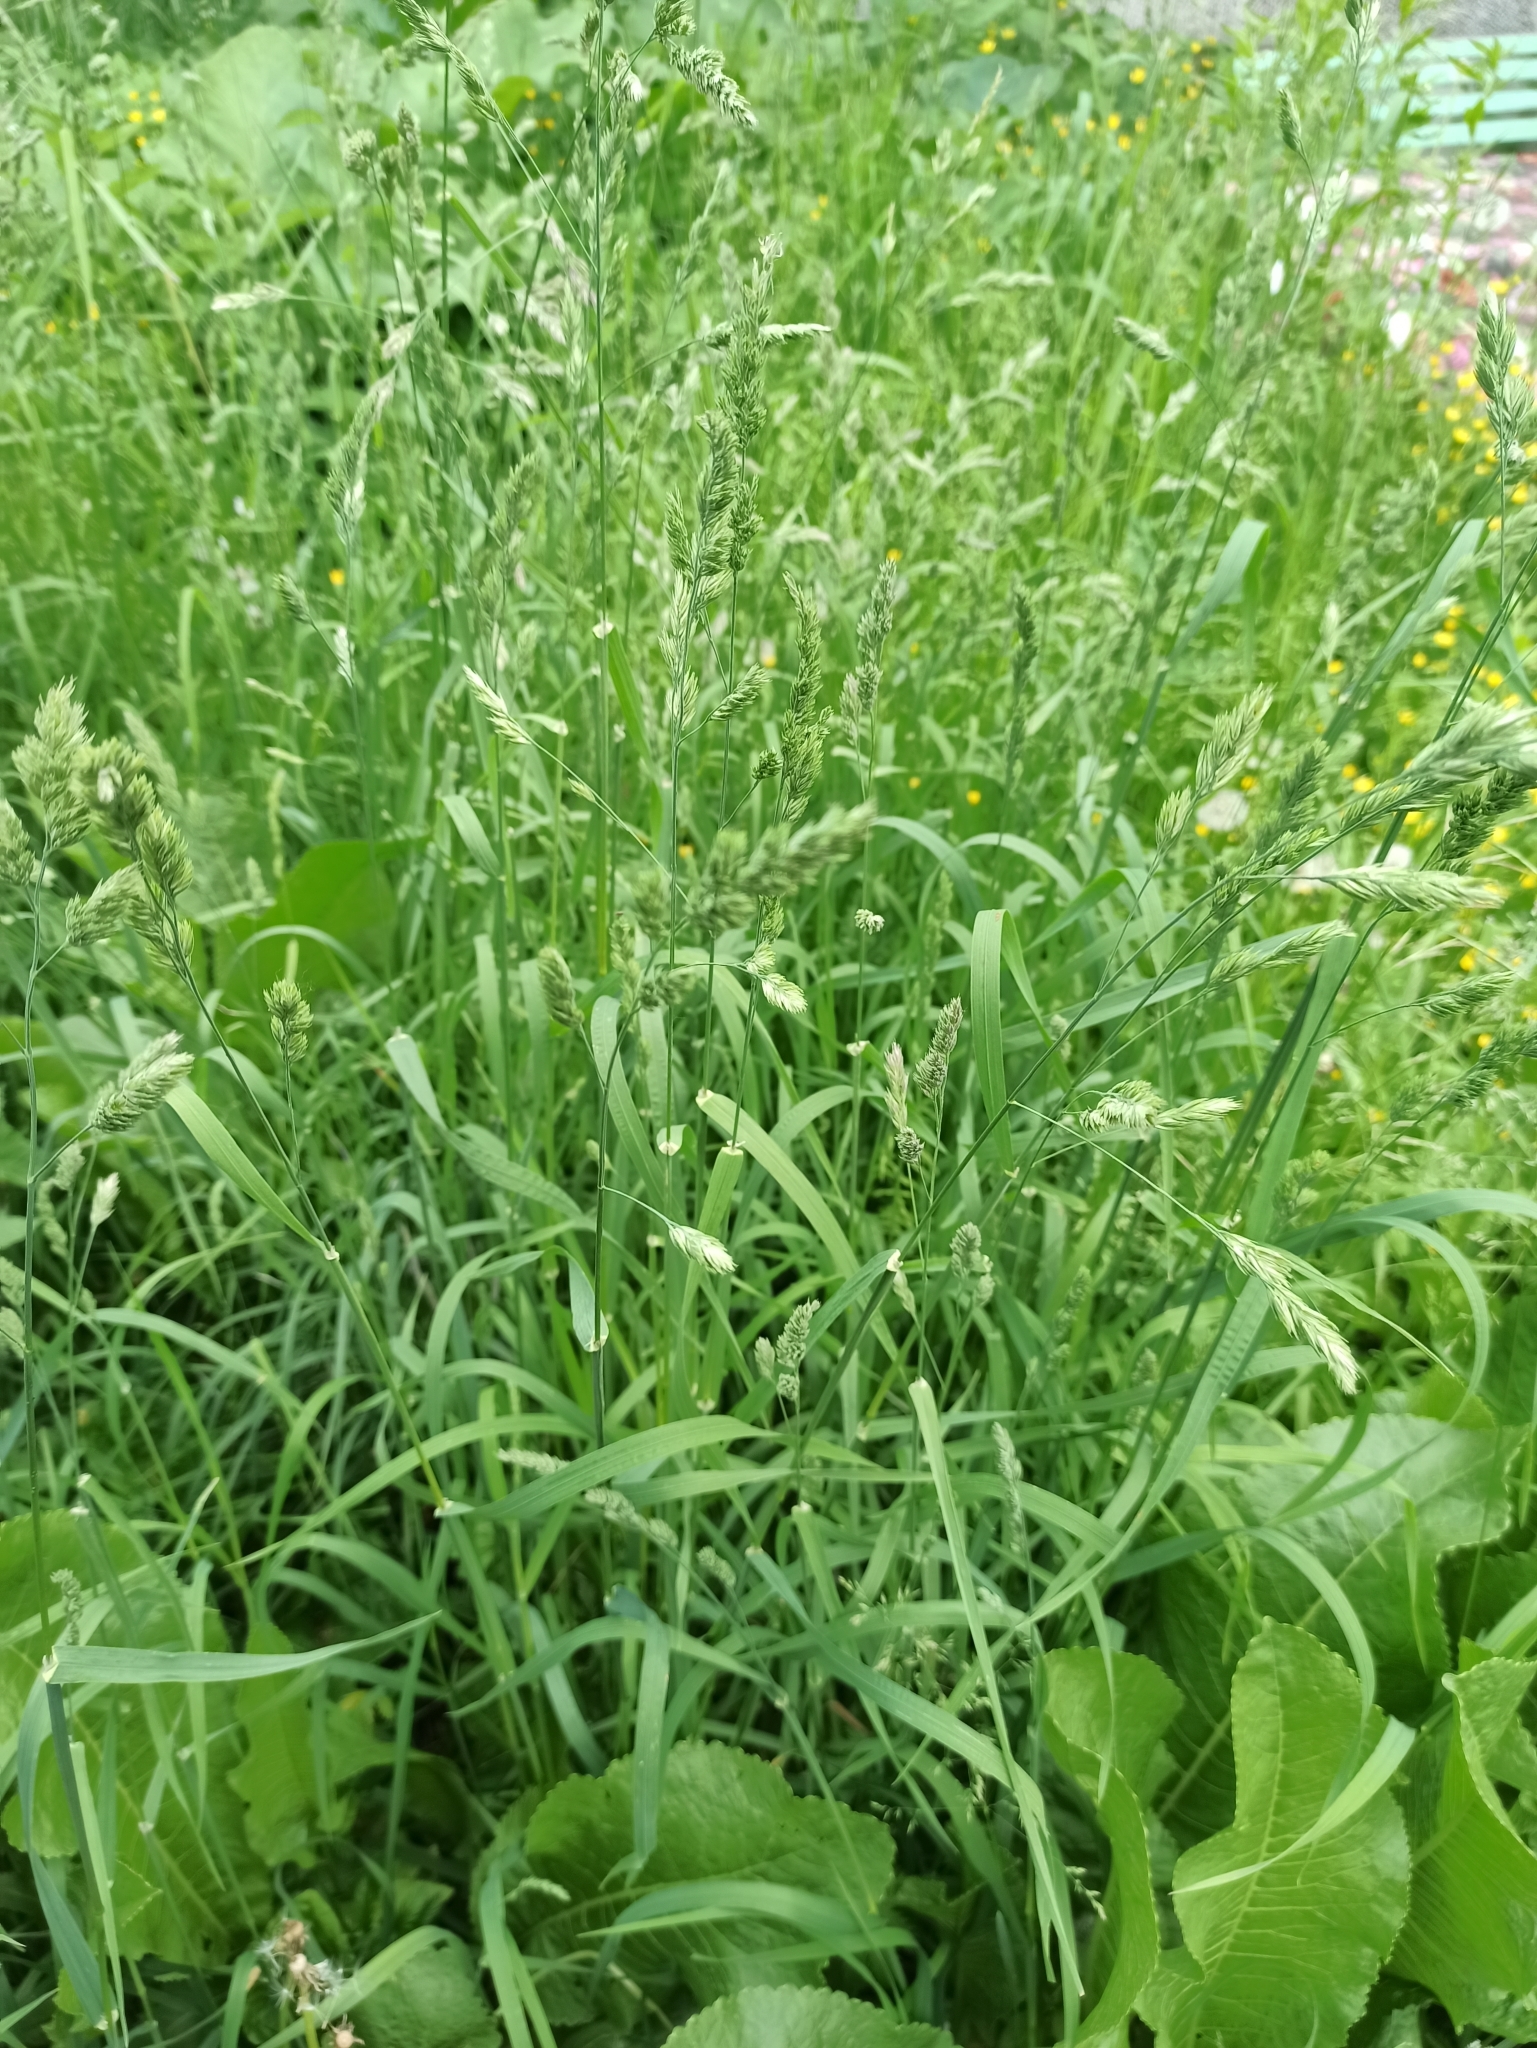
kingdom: Plantae
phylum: Tracheophyta
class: Liliopsida
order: Poales
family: Poaceae
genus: Dactylis
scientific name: Dactylis glomerata
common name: Orchardgrass
